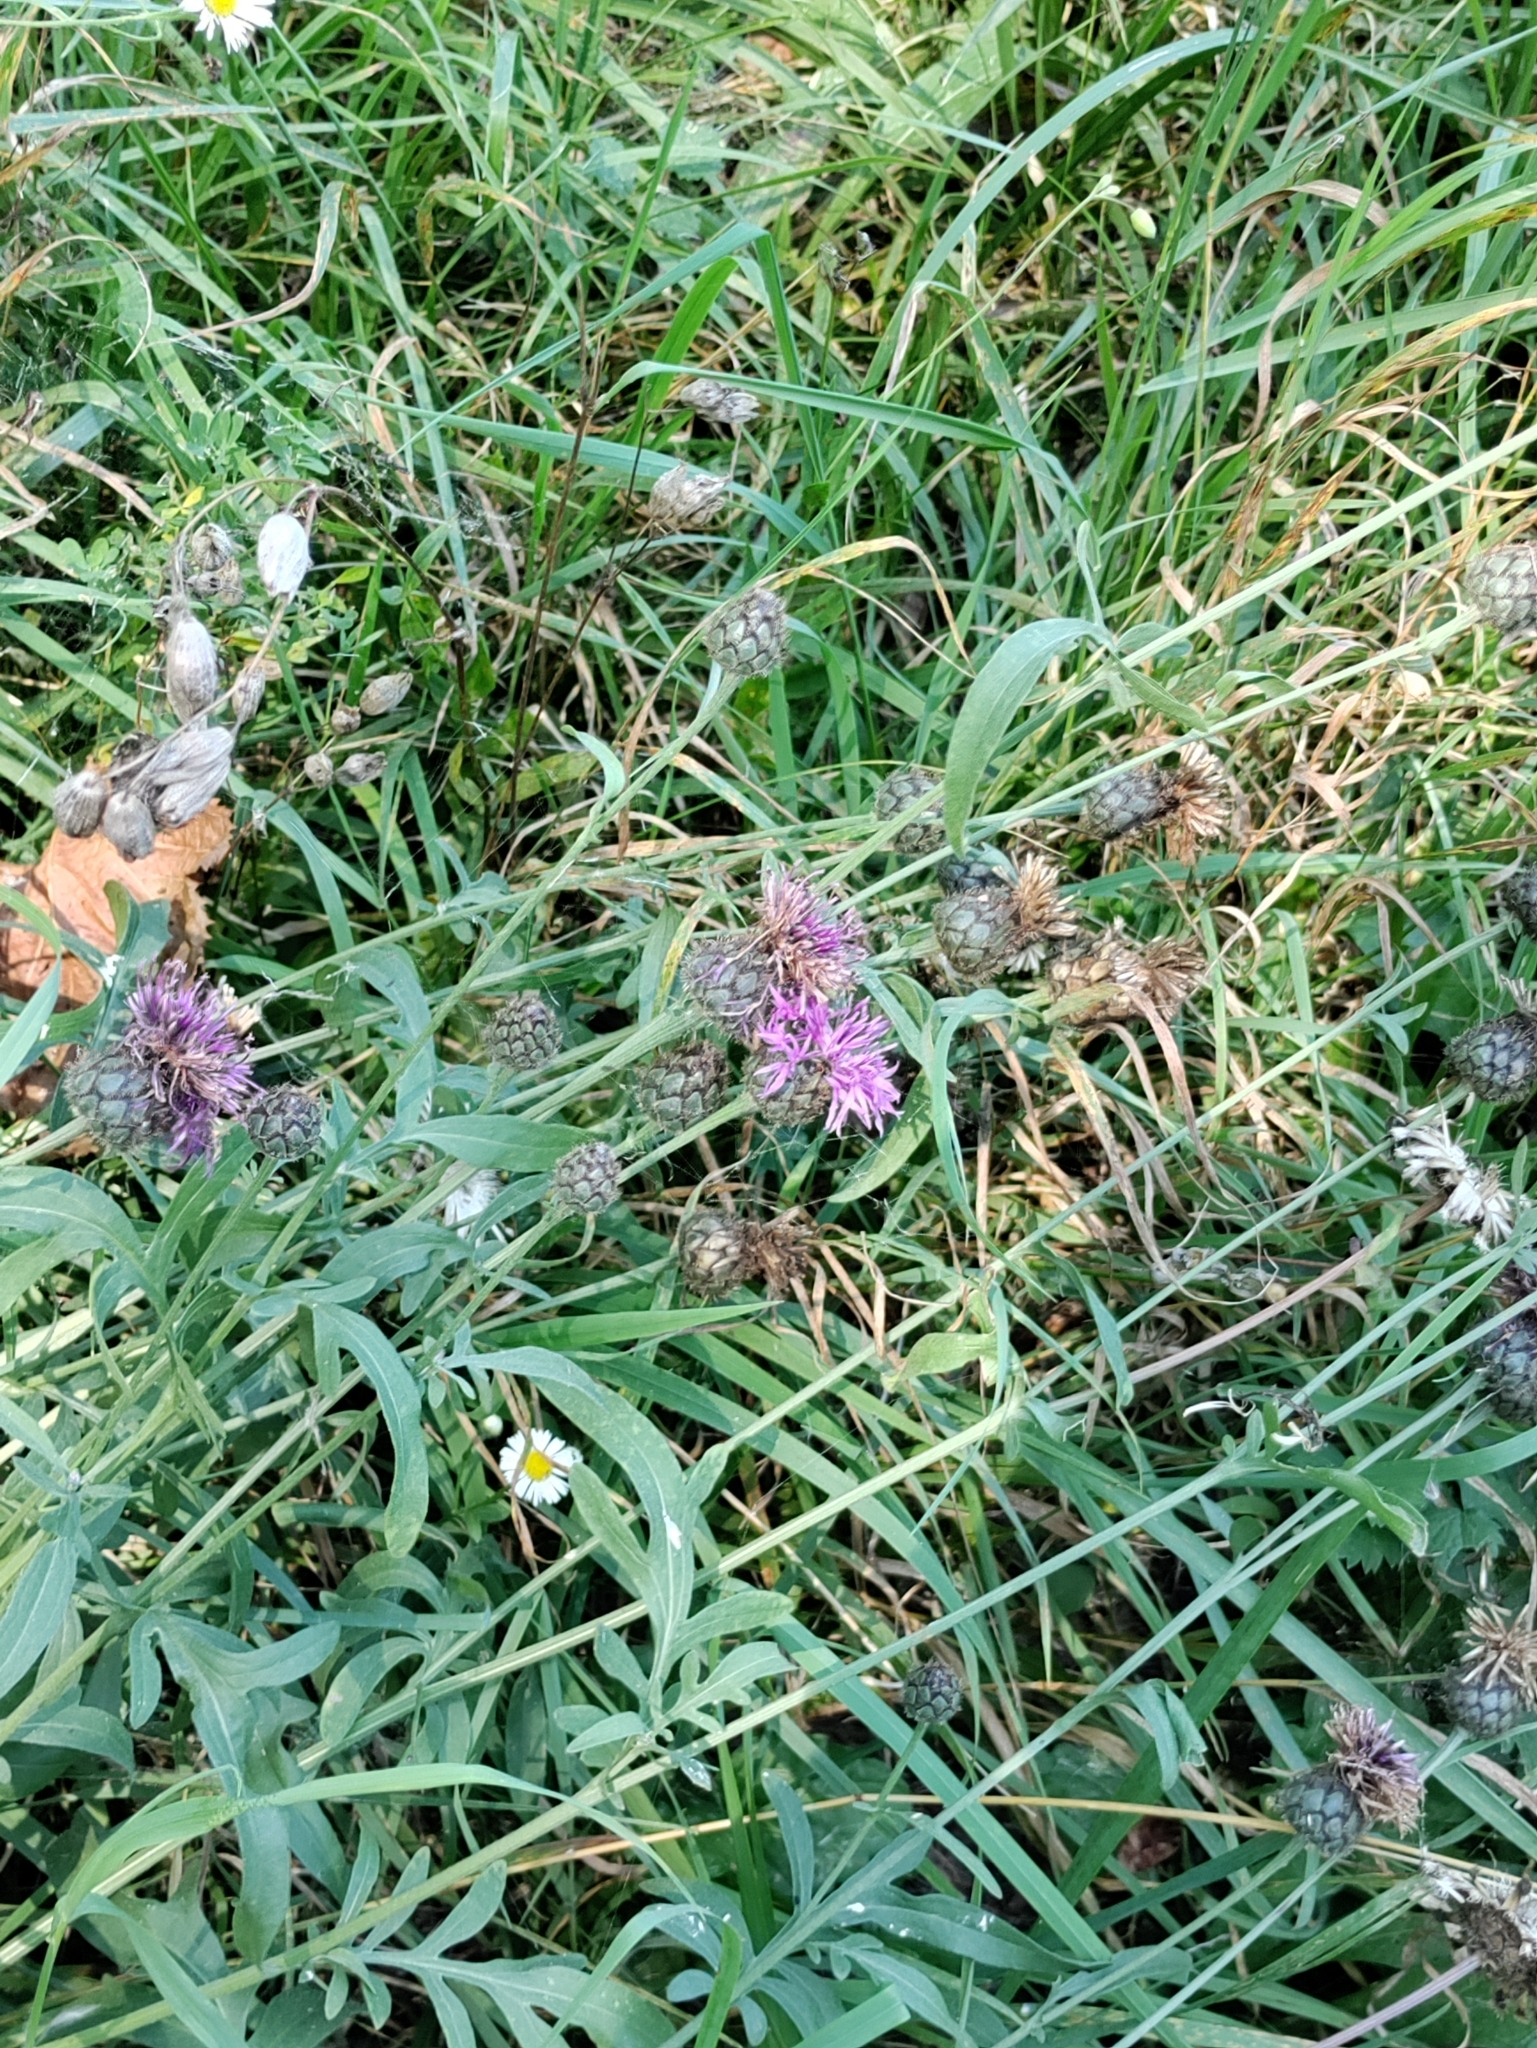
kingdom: Plantae
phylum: Tracheophyta
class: Magnoliopsida
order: Asterales
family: Asteraceae
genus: Centaurea
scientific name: Centaurea scabiosa
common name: Greater knapweed
